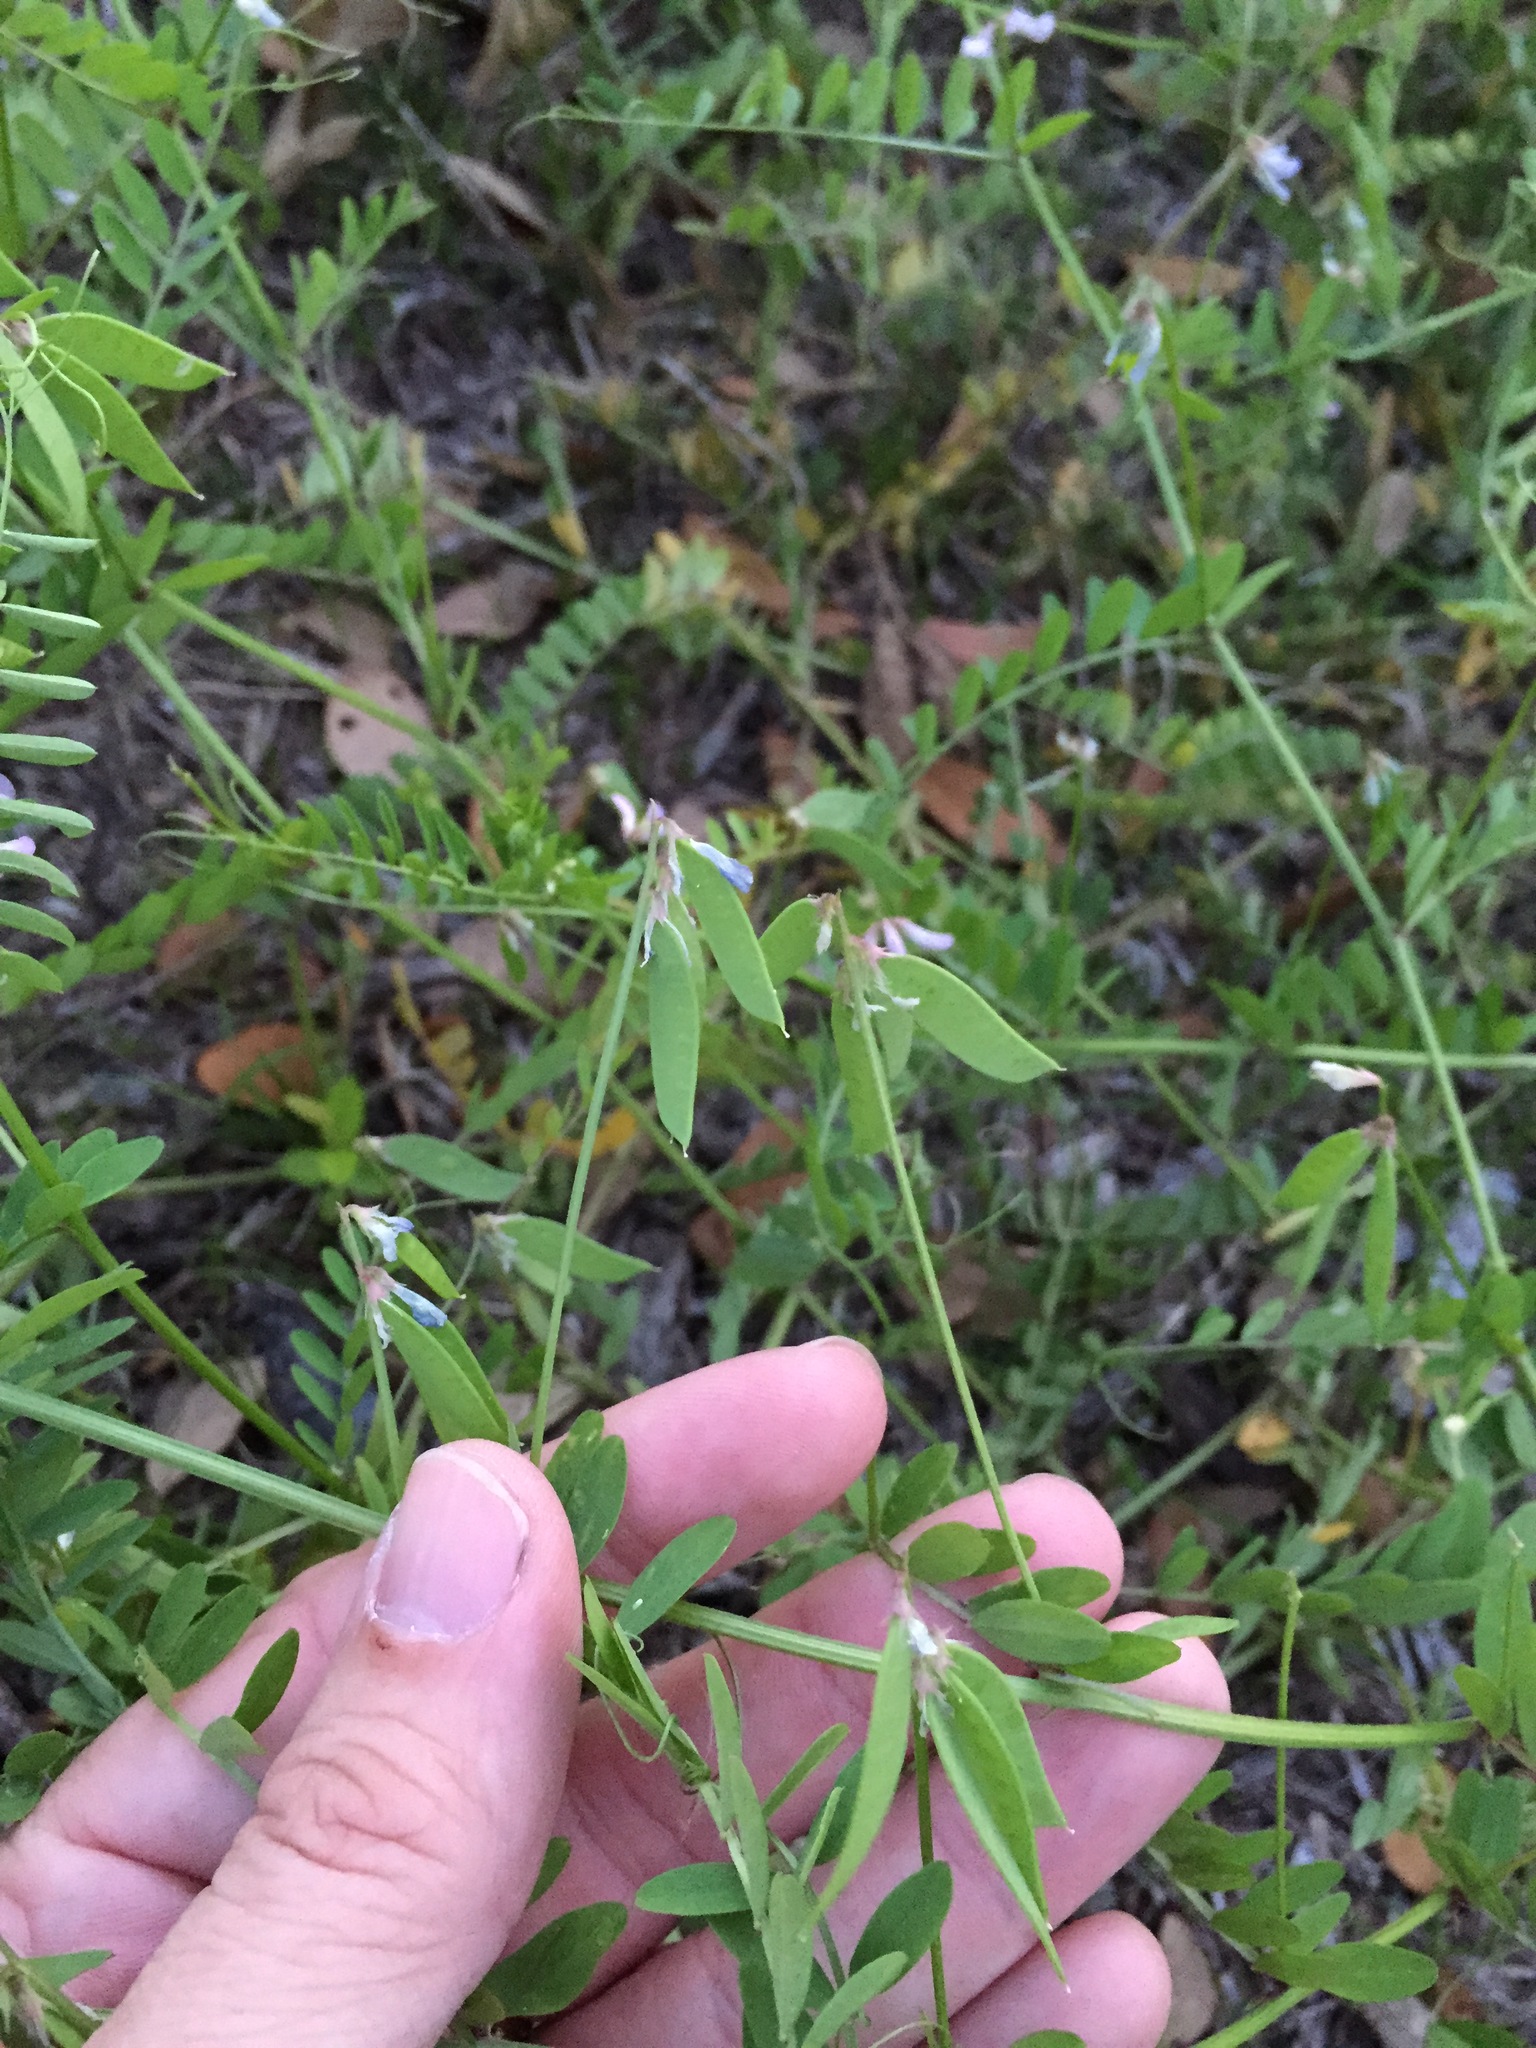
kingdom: Plantae
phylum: Tracheophyta
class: Magnoliopsida
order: Fabales
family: Fabaceae
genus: Vicia
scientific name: Vicia ludoviciana
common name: Louisiana vetch
